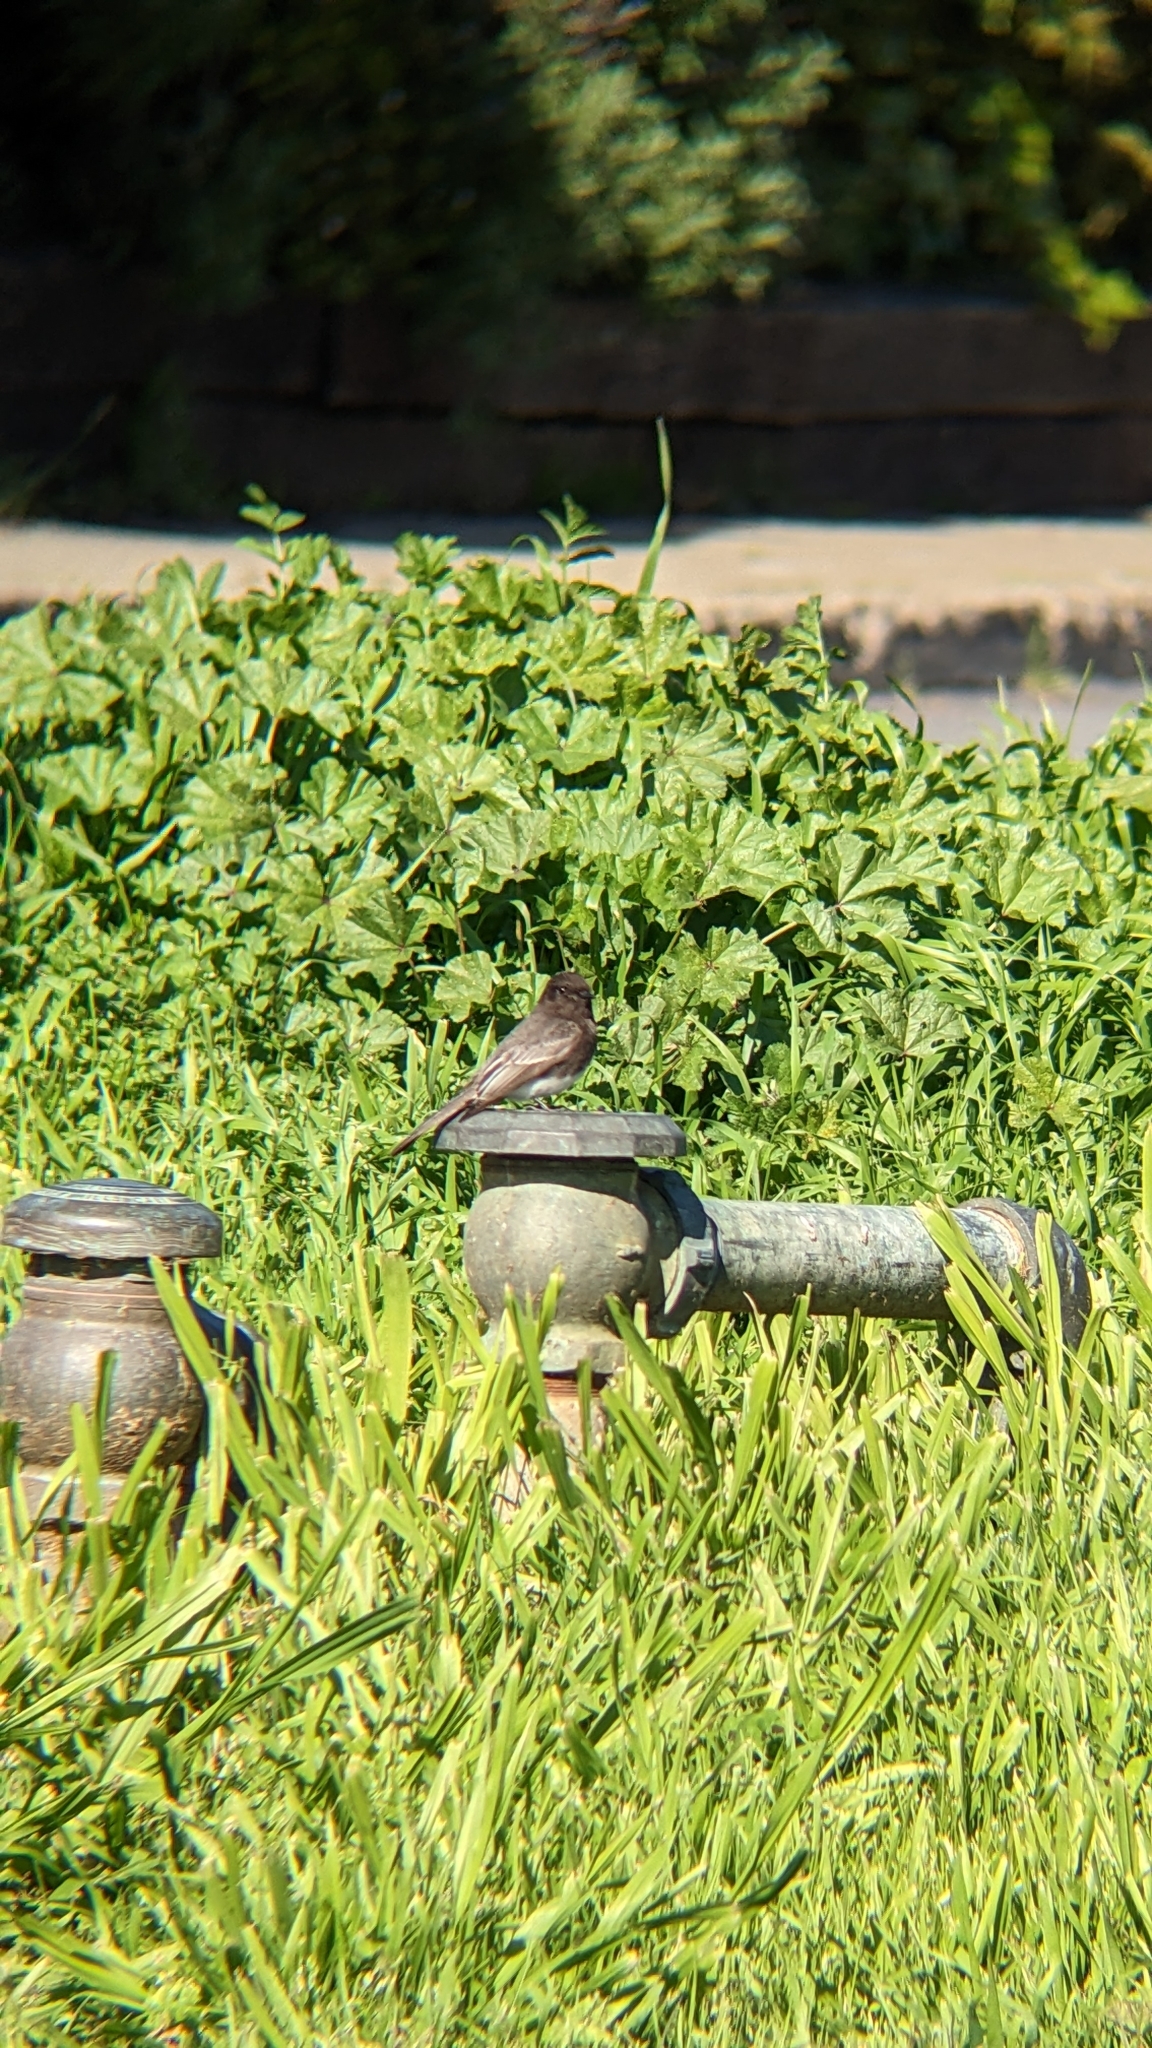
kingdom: Animalia
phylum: Chordata
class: Aves
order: Passeriformes
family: Tyrannidae
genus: Sayornis
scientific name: Sayornis nigricans
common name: Black phoebe
